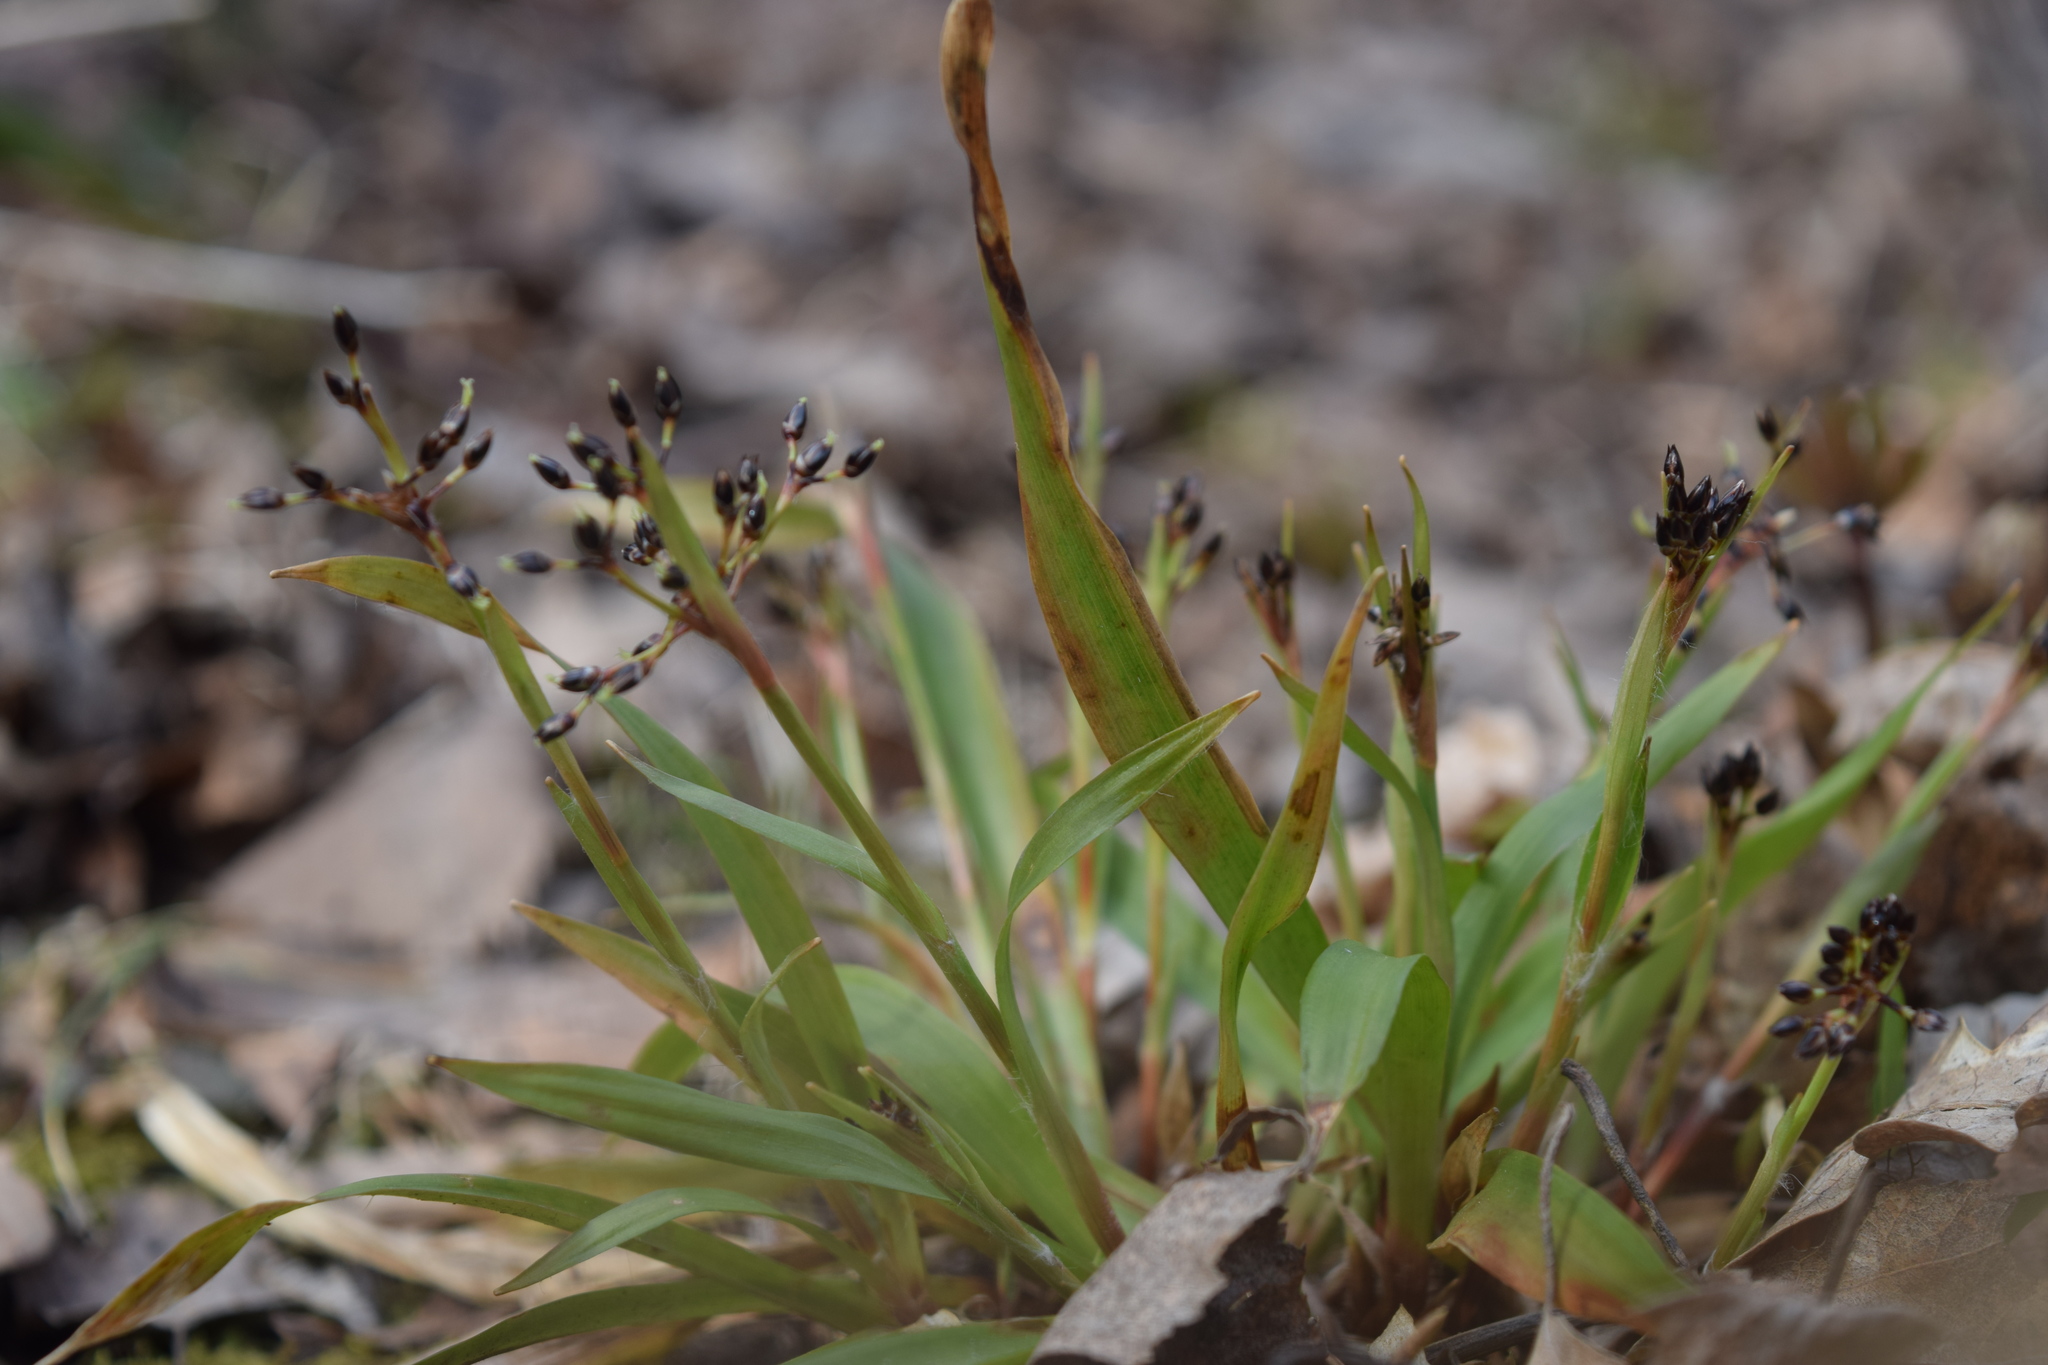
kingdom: Plantae
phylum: Tracheophyta
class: Liliopsida
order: Poales
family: Juncaceae
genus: Luzula
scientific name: Luzula pilosa
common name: Hairy wood-rush
